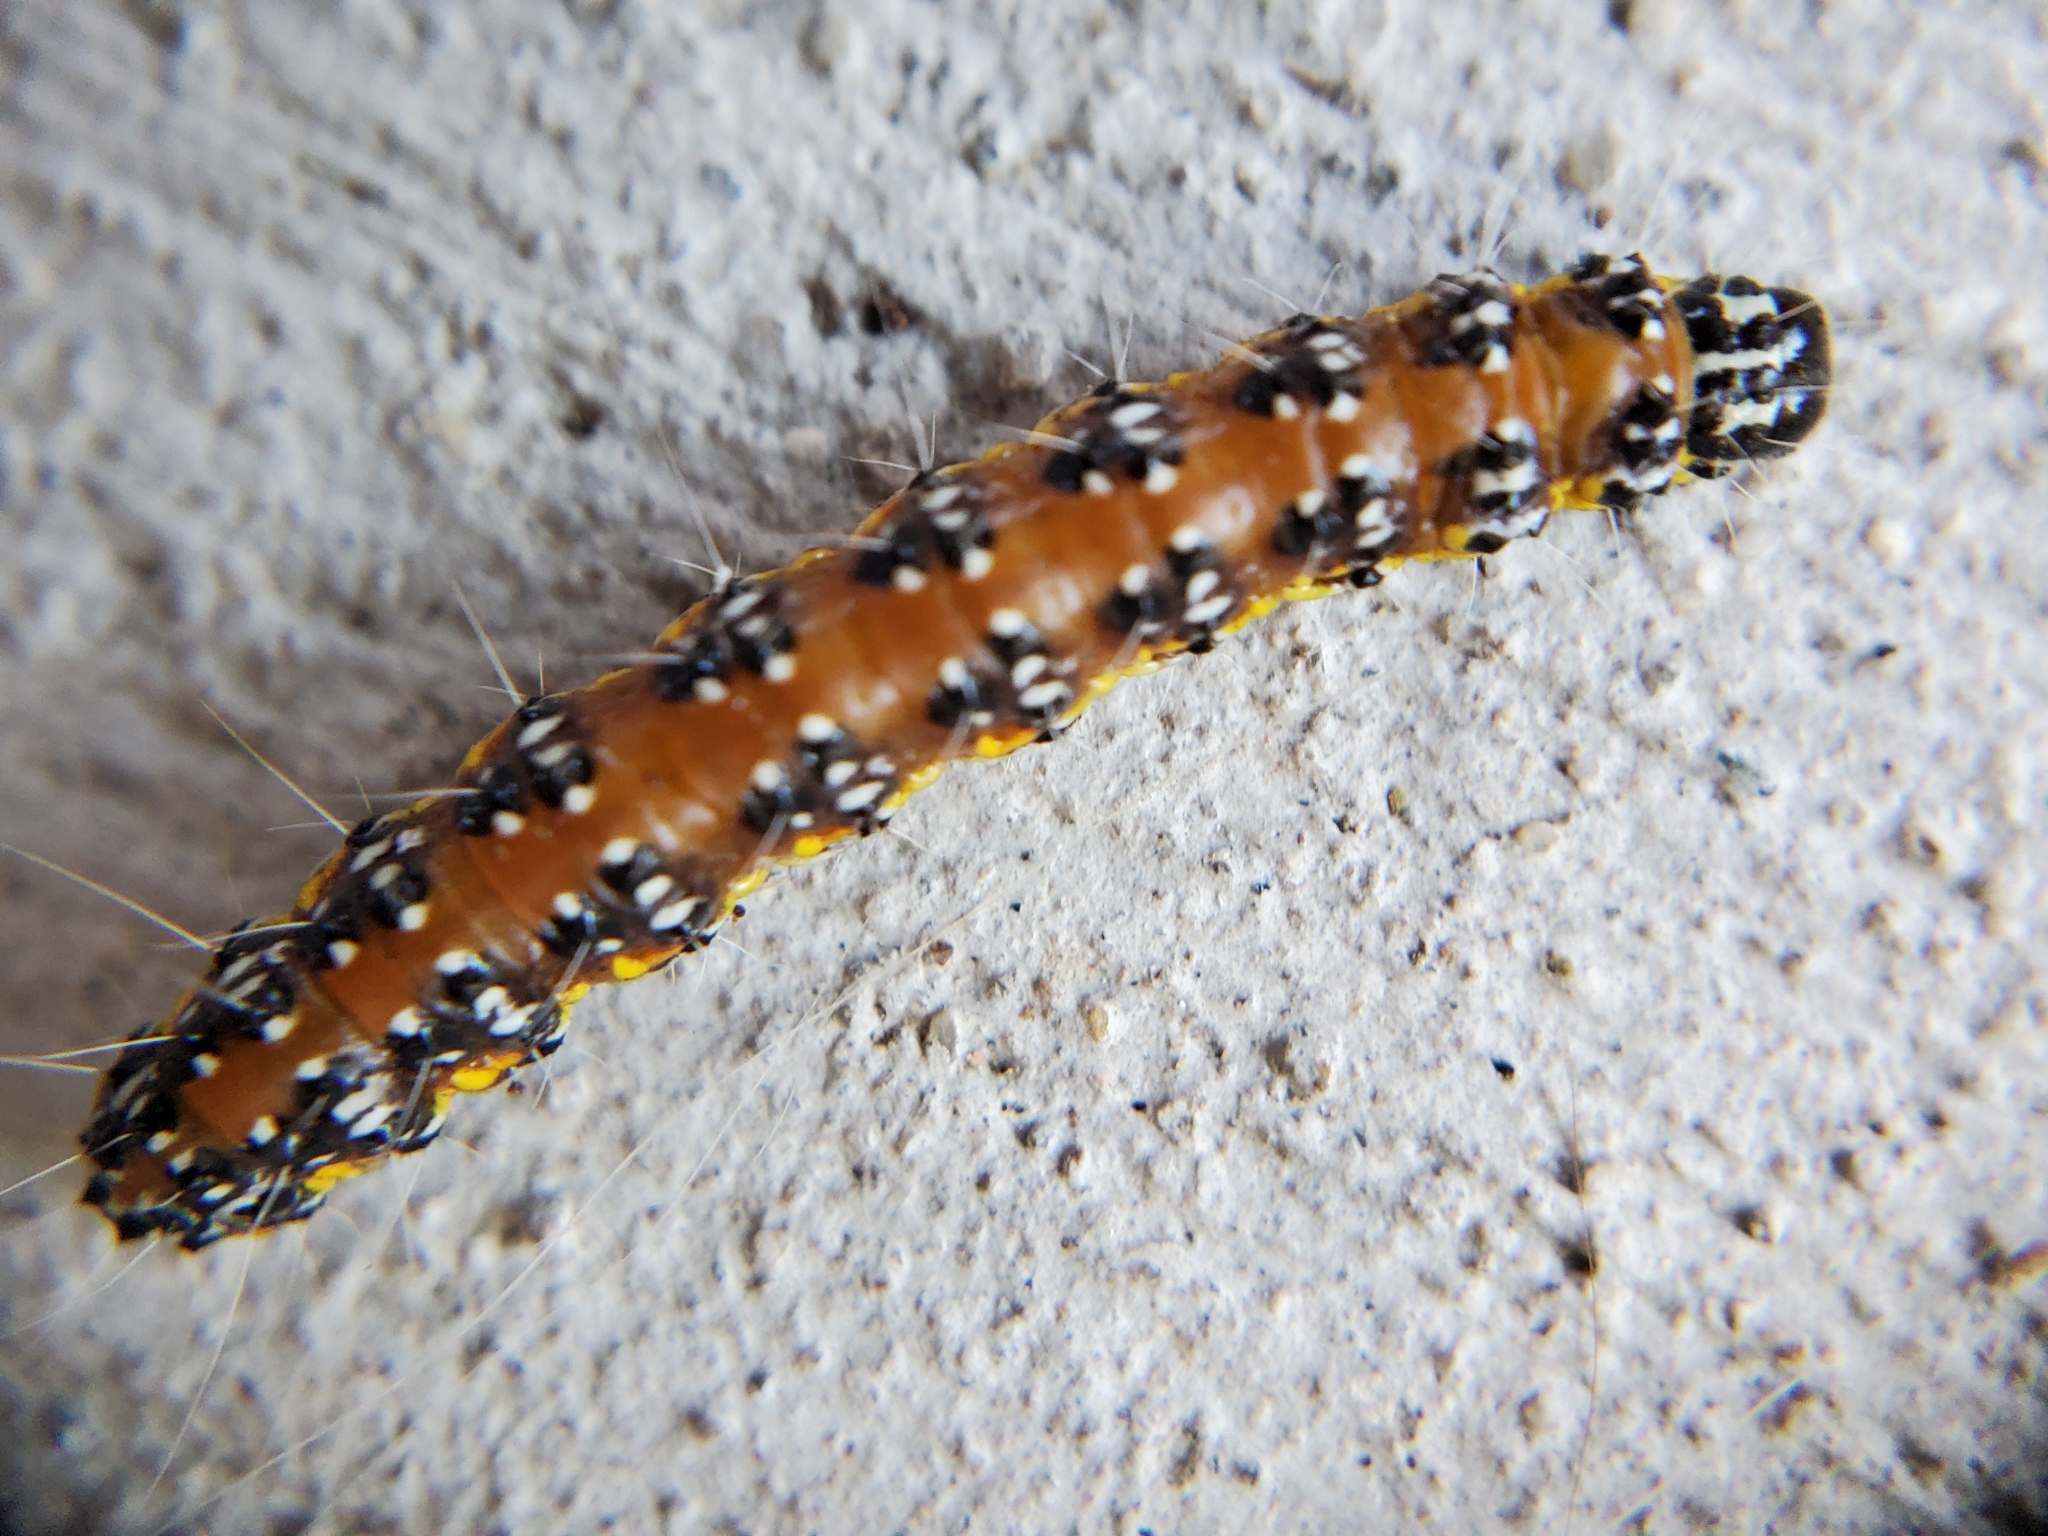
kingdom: Animalia
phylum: Arthropoda
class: Insecta
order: Lepidoptera
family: Crambidae
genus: Uresiphita
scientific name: Uresiphita reversalis
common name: Genista broom moth
